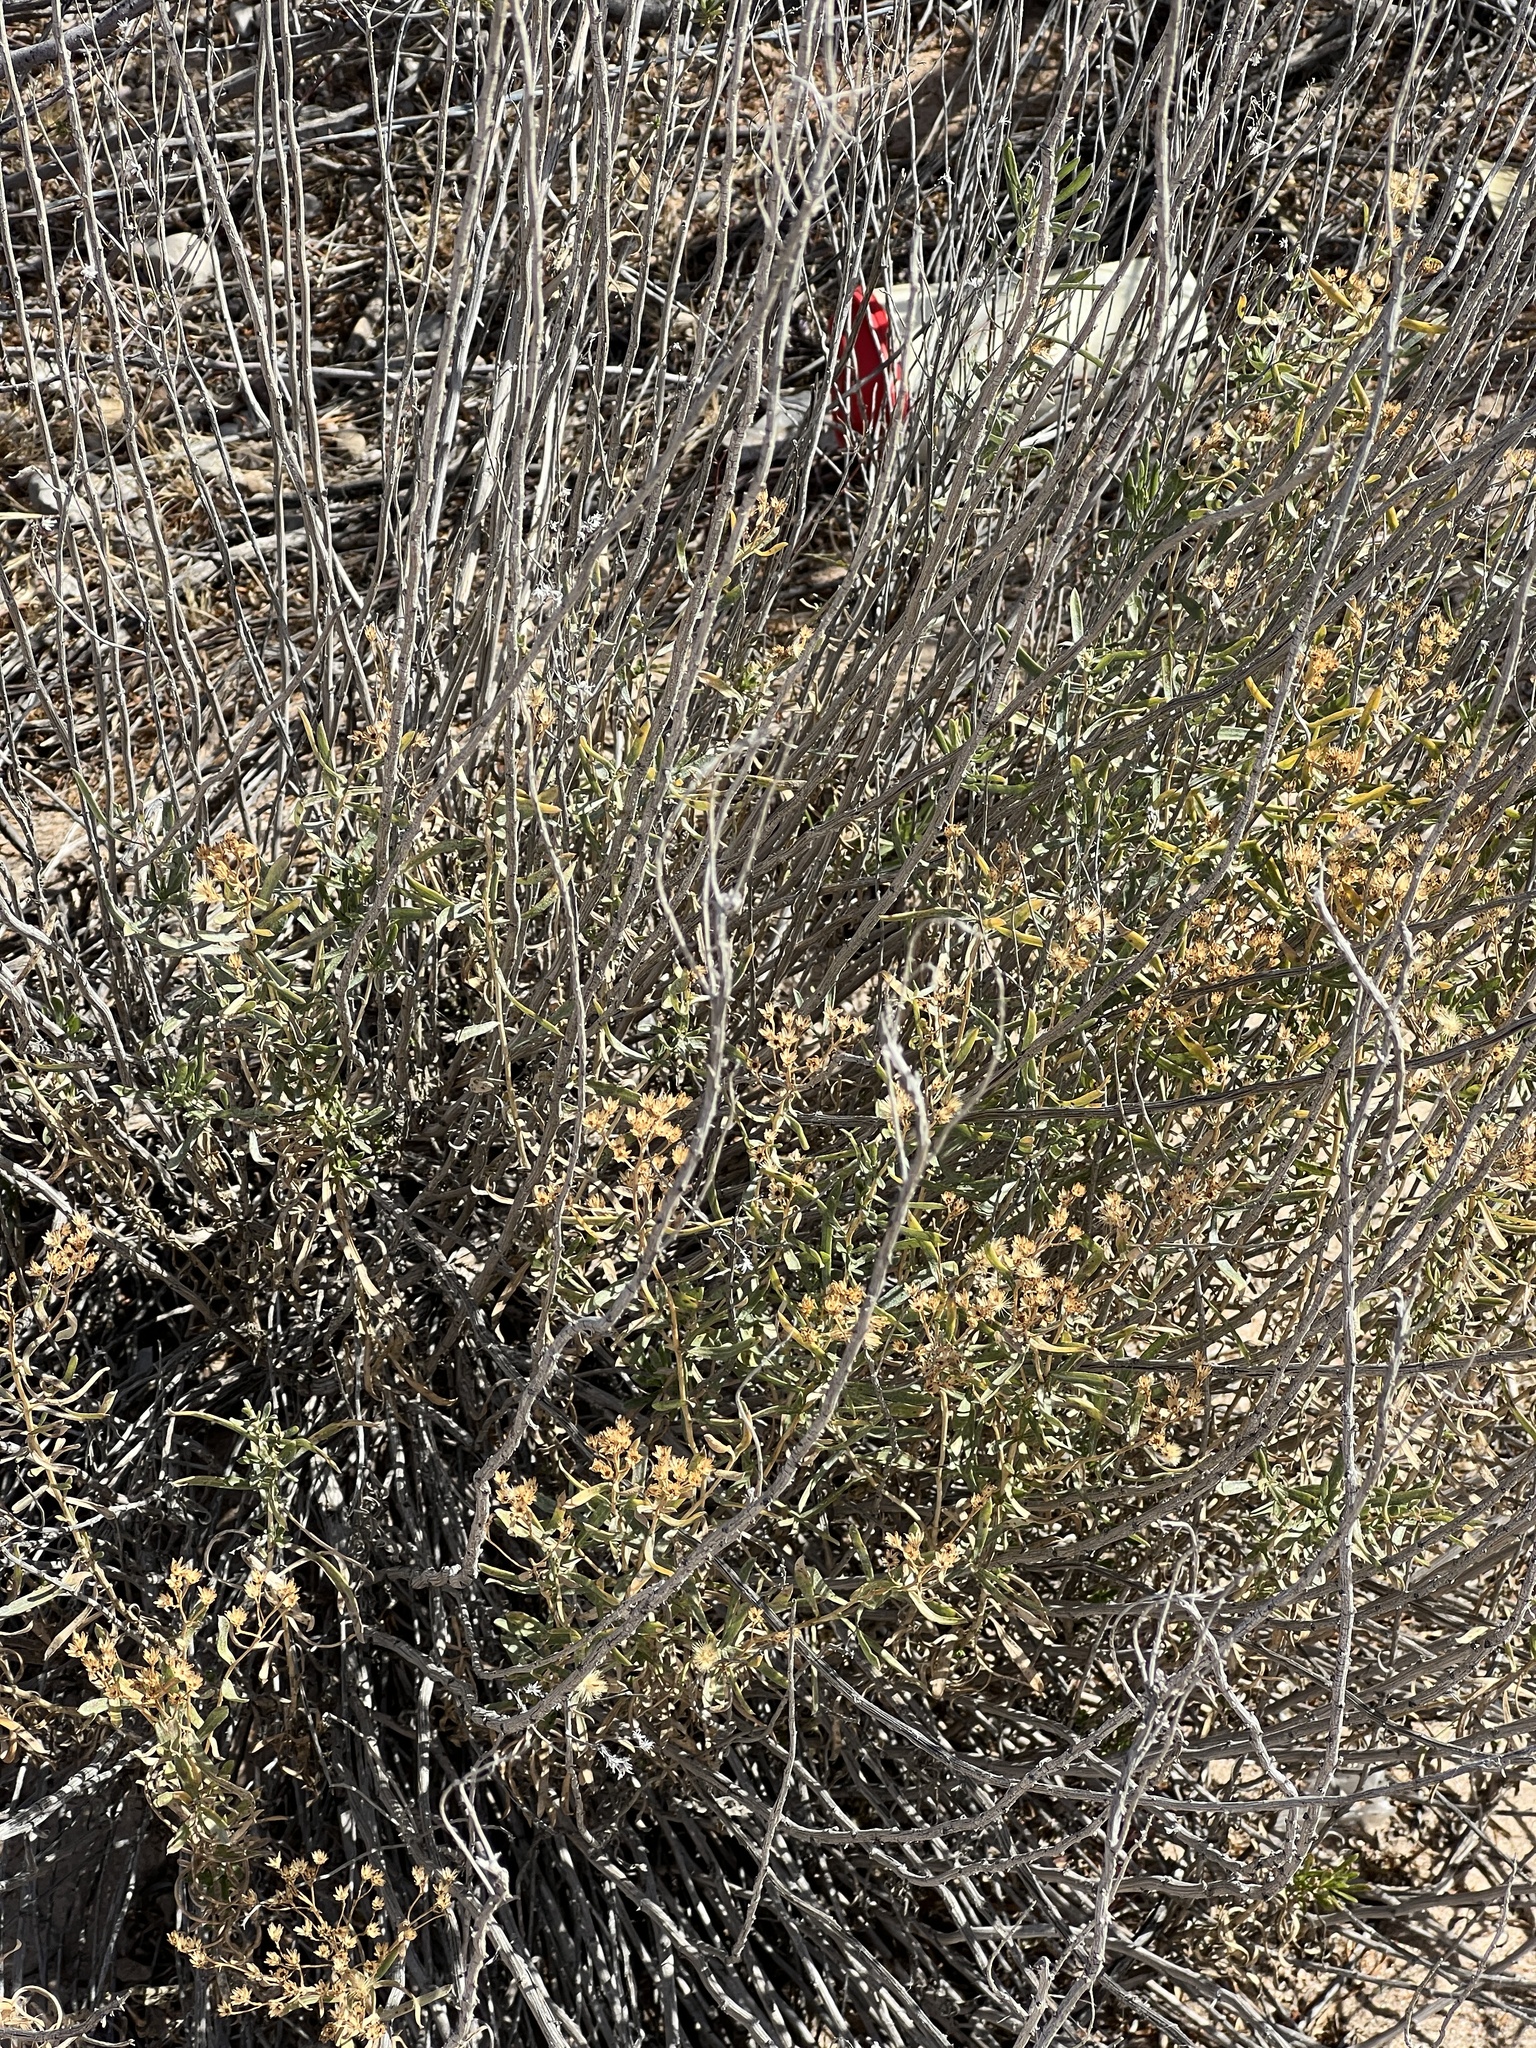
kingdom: Plantae
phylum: Tracheophyta
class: Magnoliopsida
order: Caryophyllales
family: Amaranthaceae
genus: Atriplex
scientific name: Atriplex canescens
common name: Four-wing saltbush
